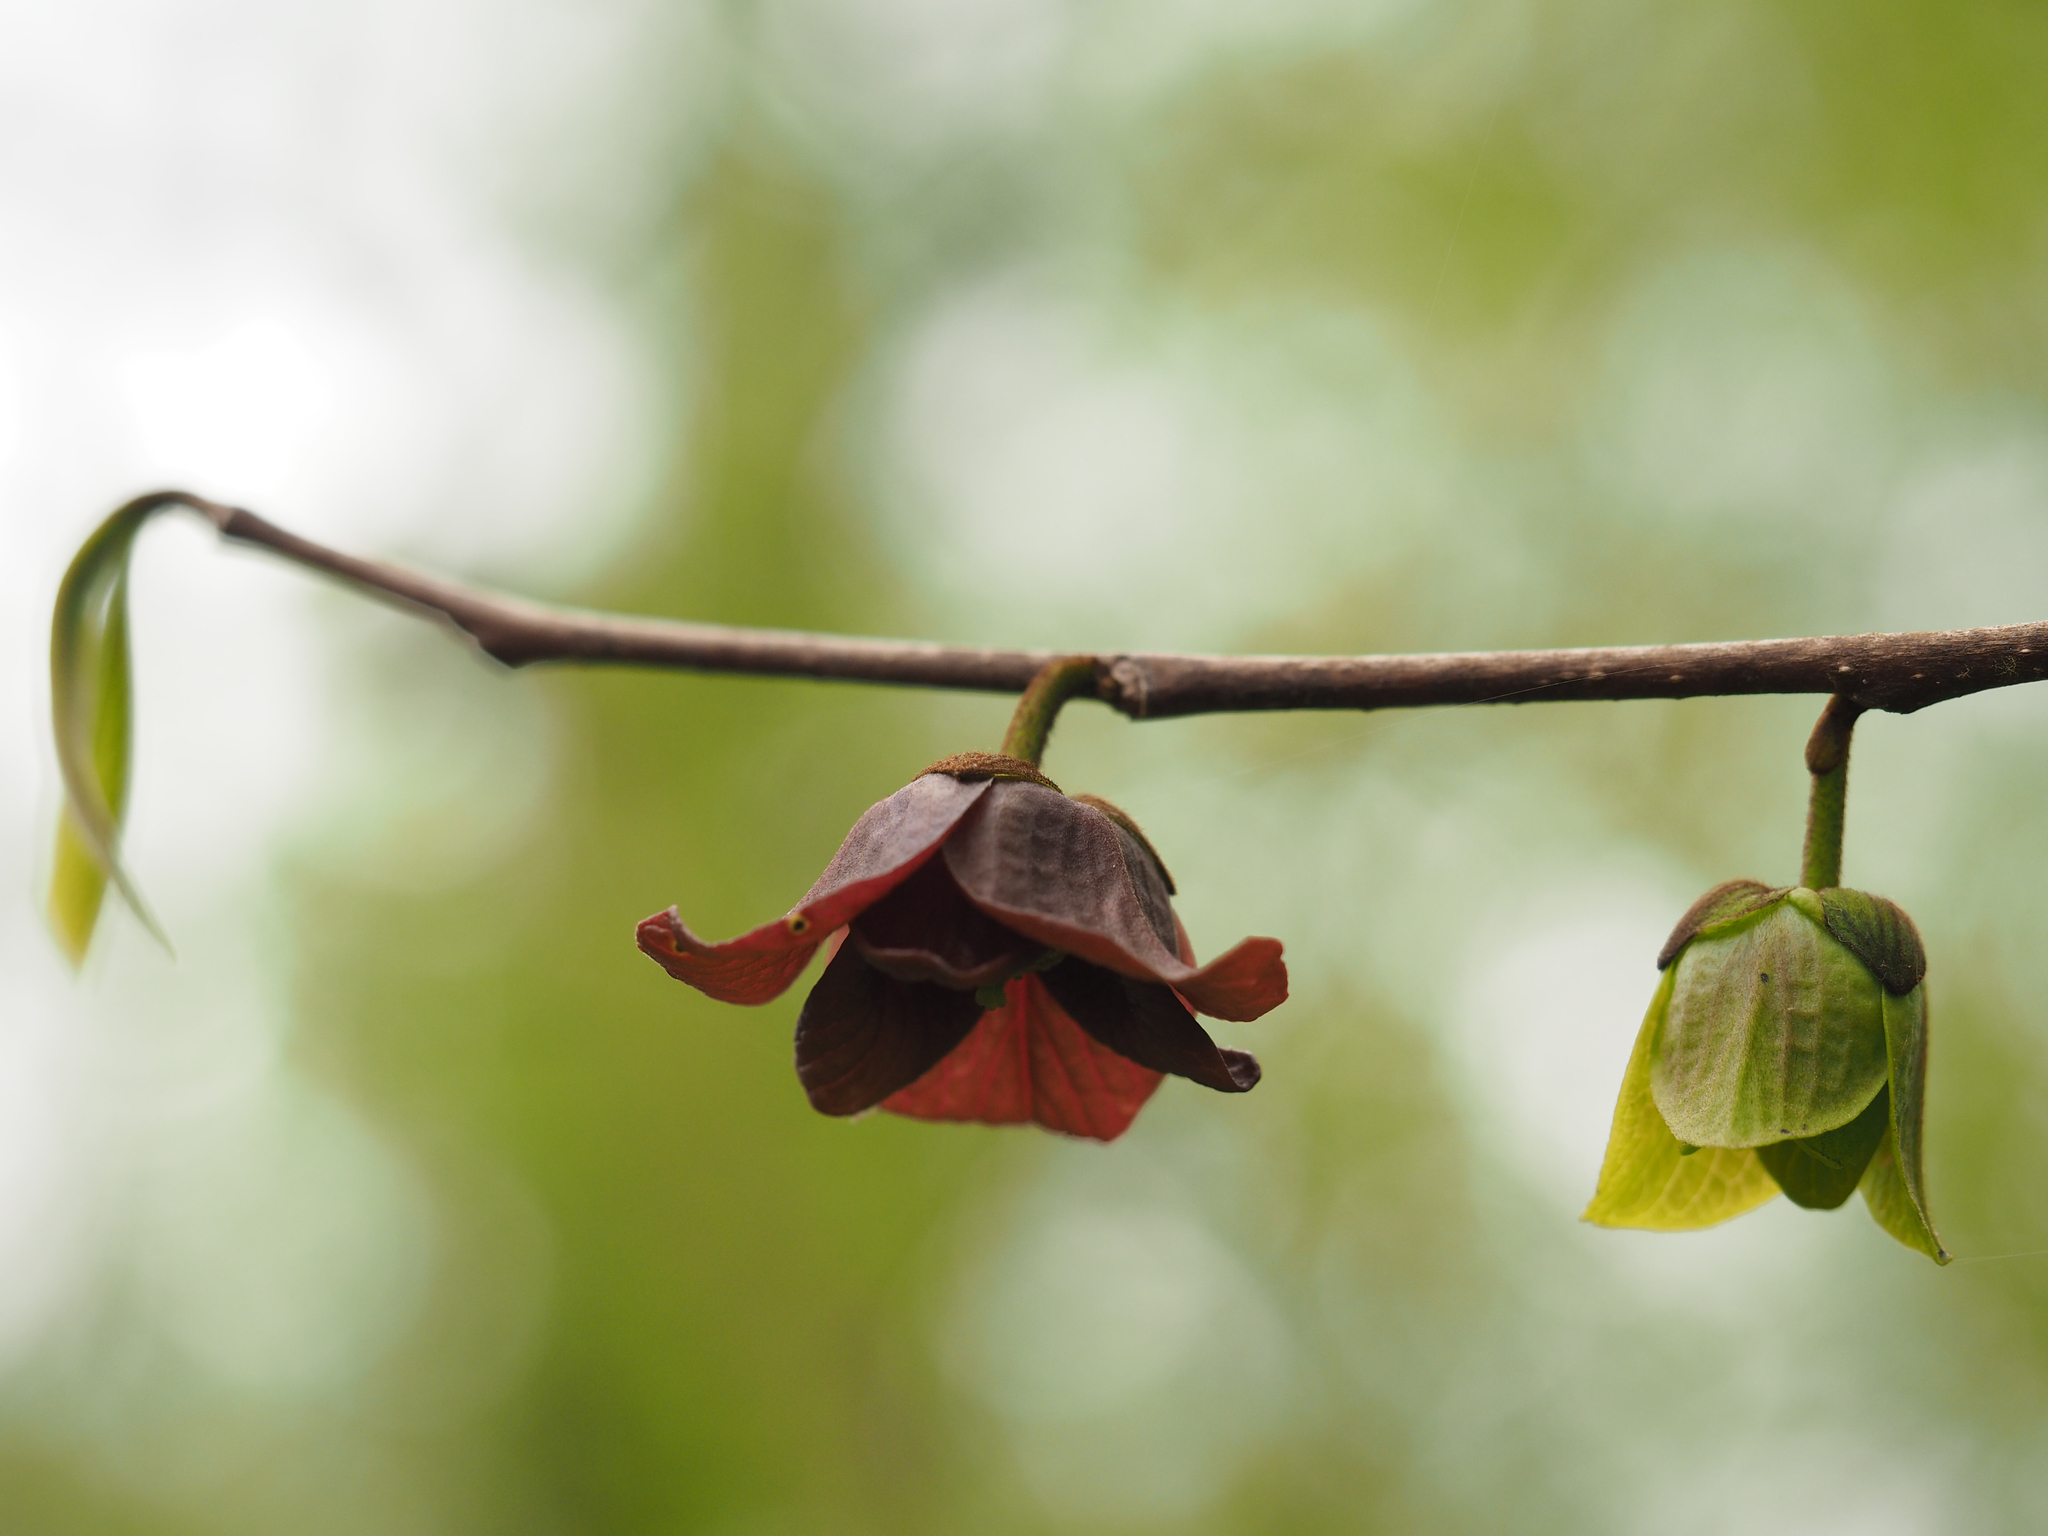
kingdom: Plantae
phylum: Tracheophyta
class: Magnoliopsida
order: Magnoliales
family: Annonaceae
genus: Asimina
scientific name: Asimina triloba
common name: Dog-banana
